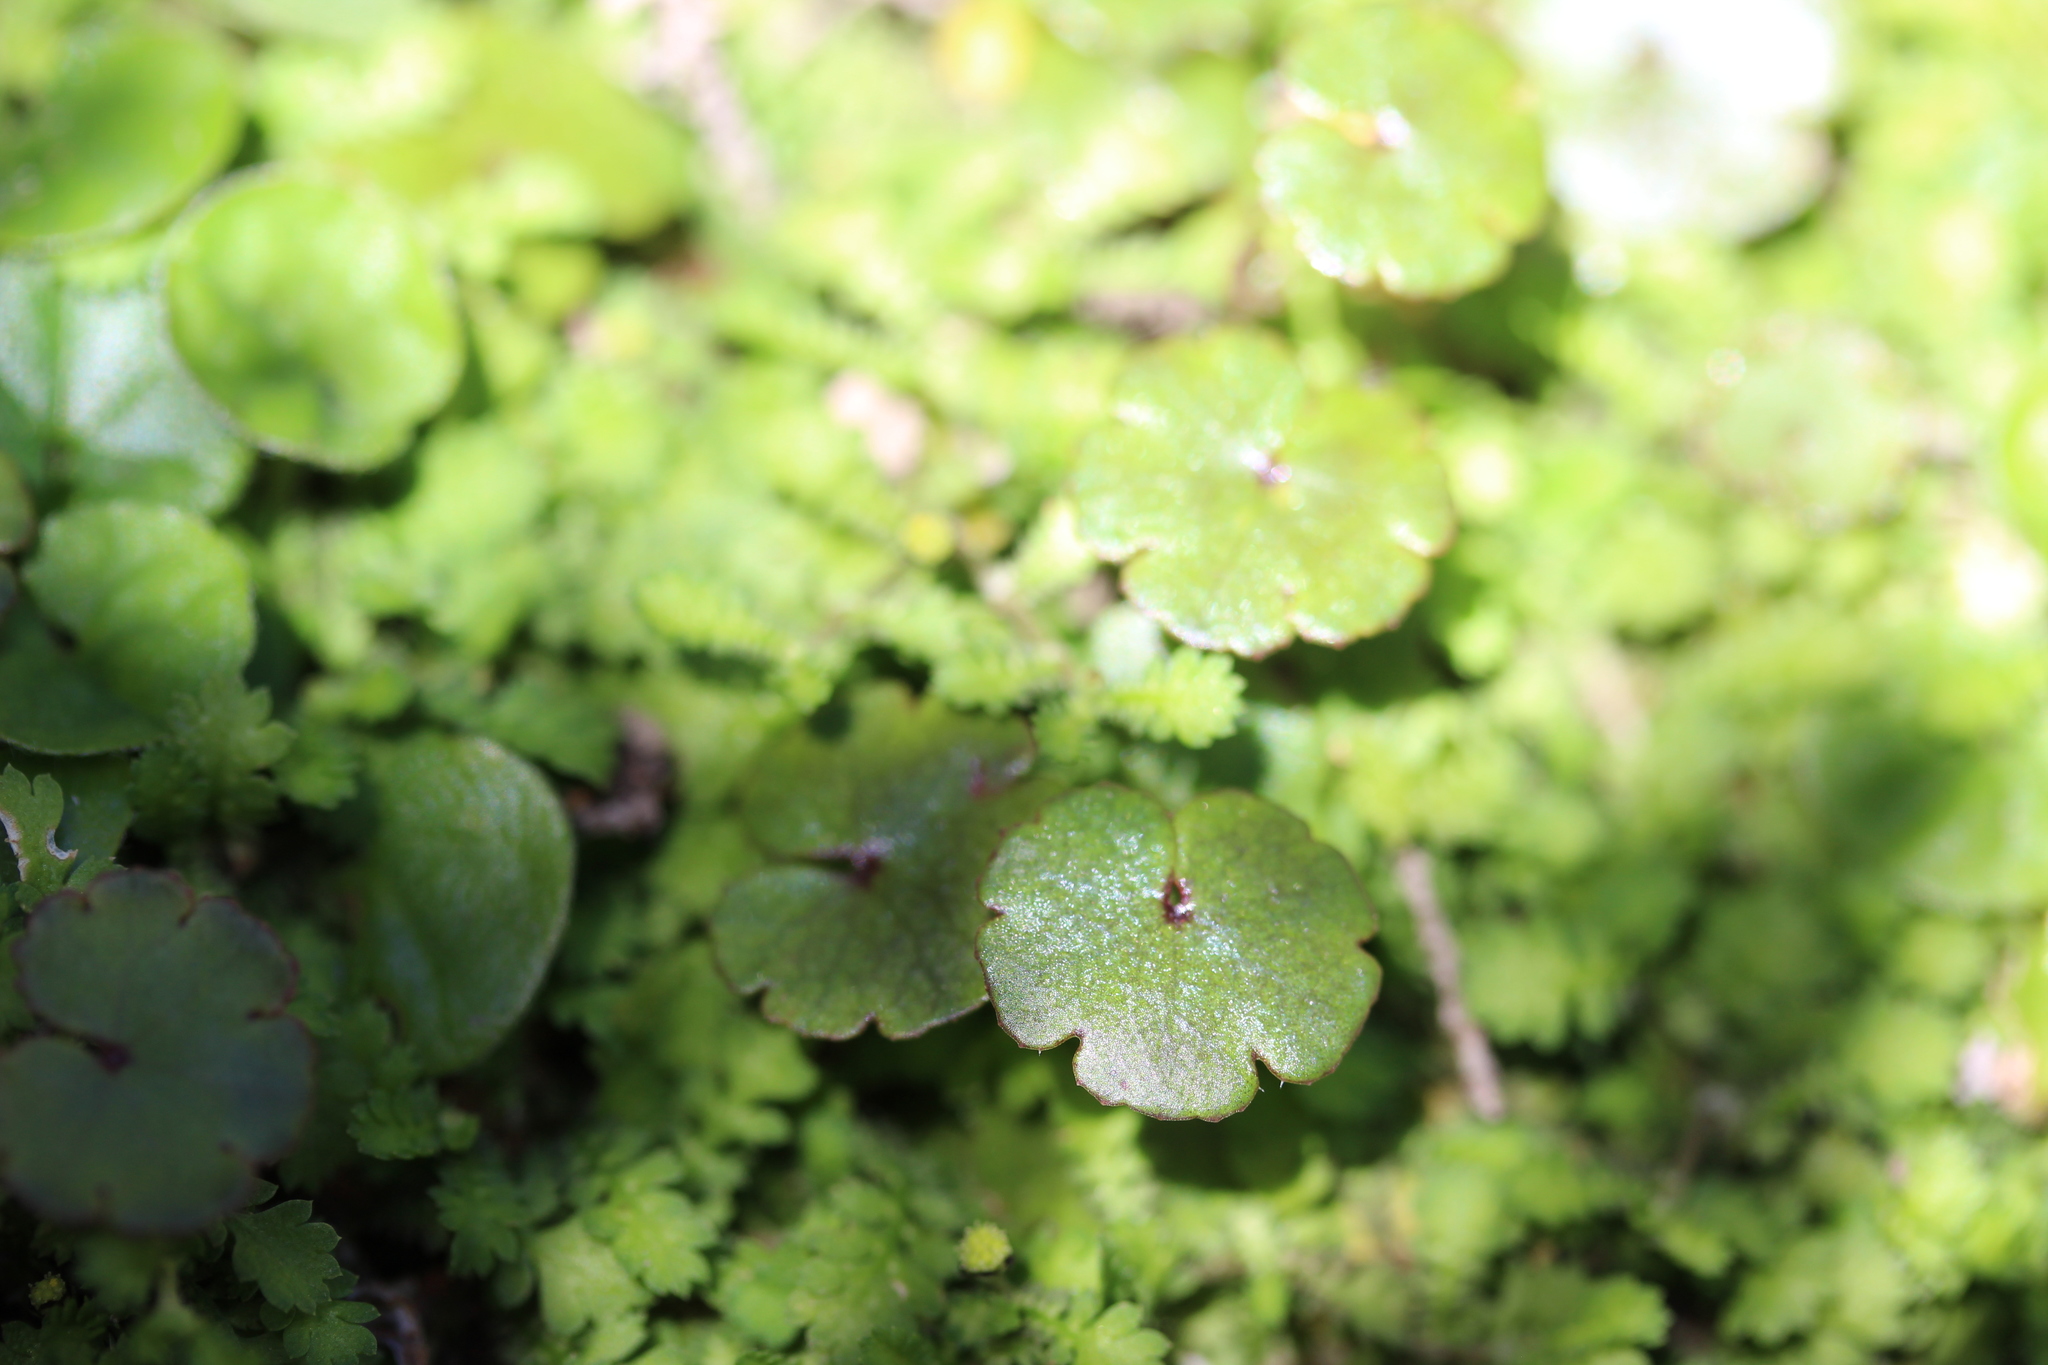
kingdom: Plantae
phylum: Tracheophyta
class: Magnoliopsida
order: Apiales
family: Araliaceae
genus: Hydrocotyle
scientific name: Hydrocotyle novae-zeelandiae
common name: New zealand pennywort
